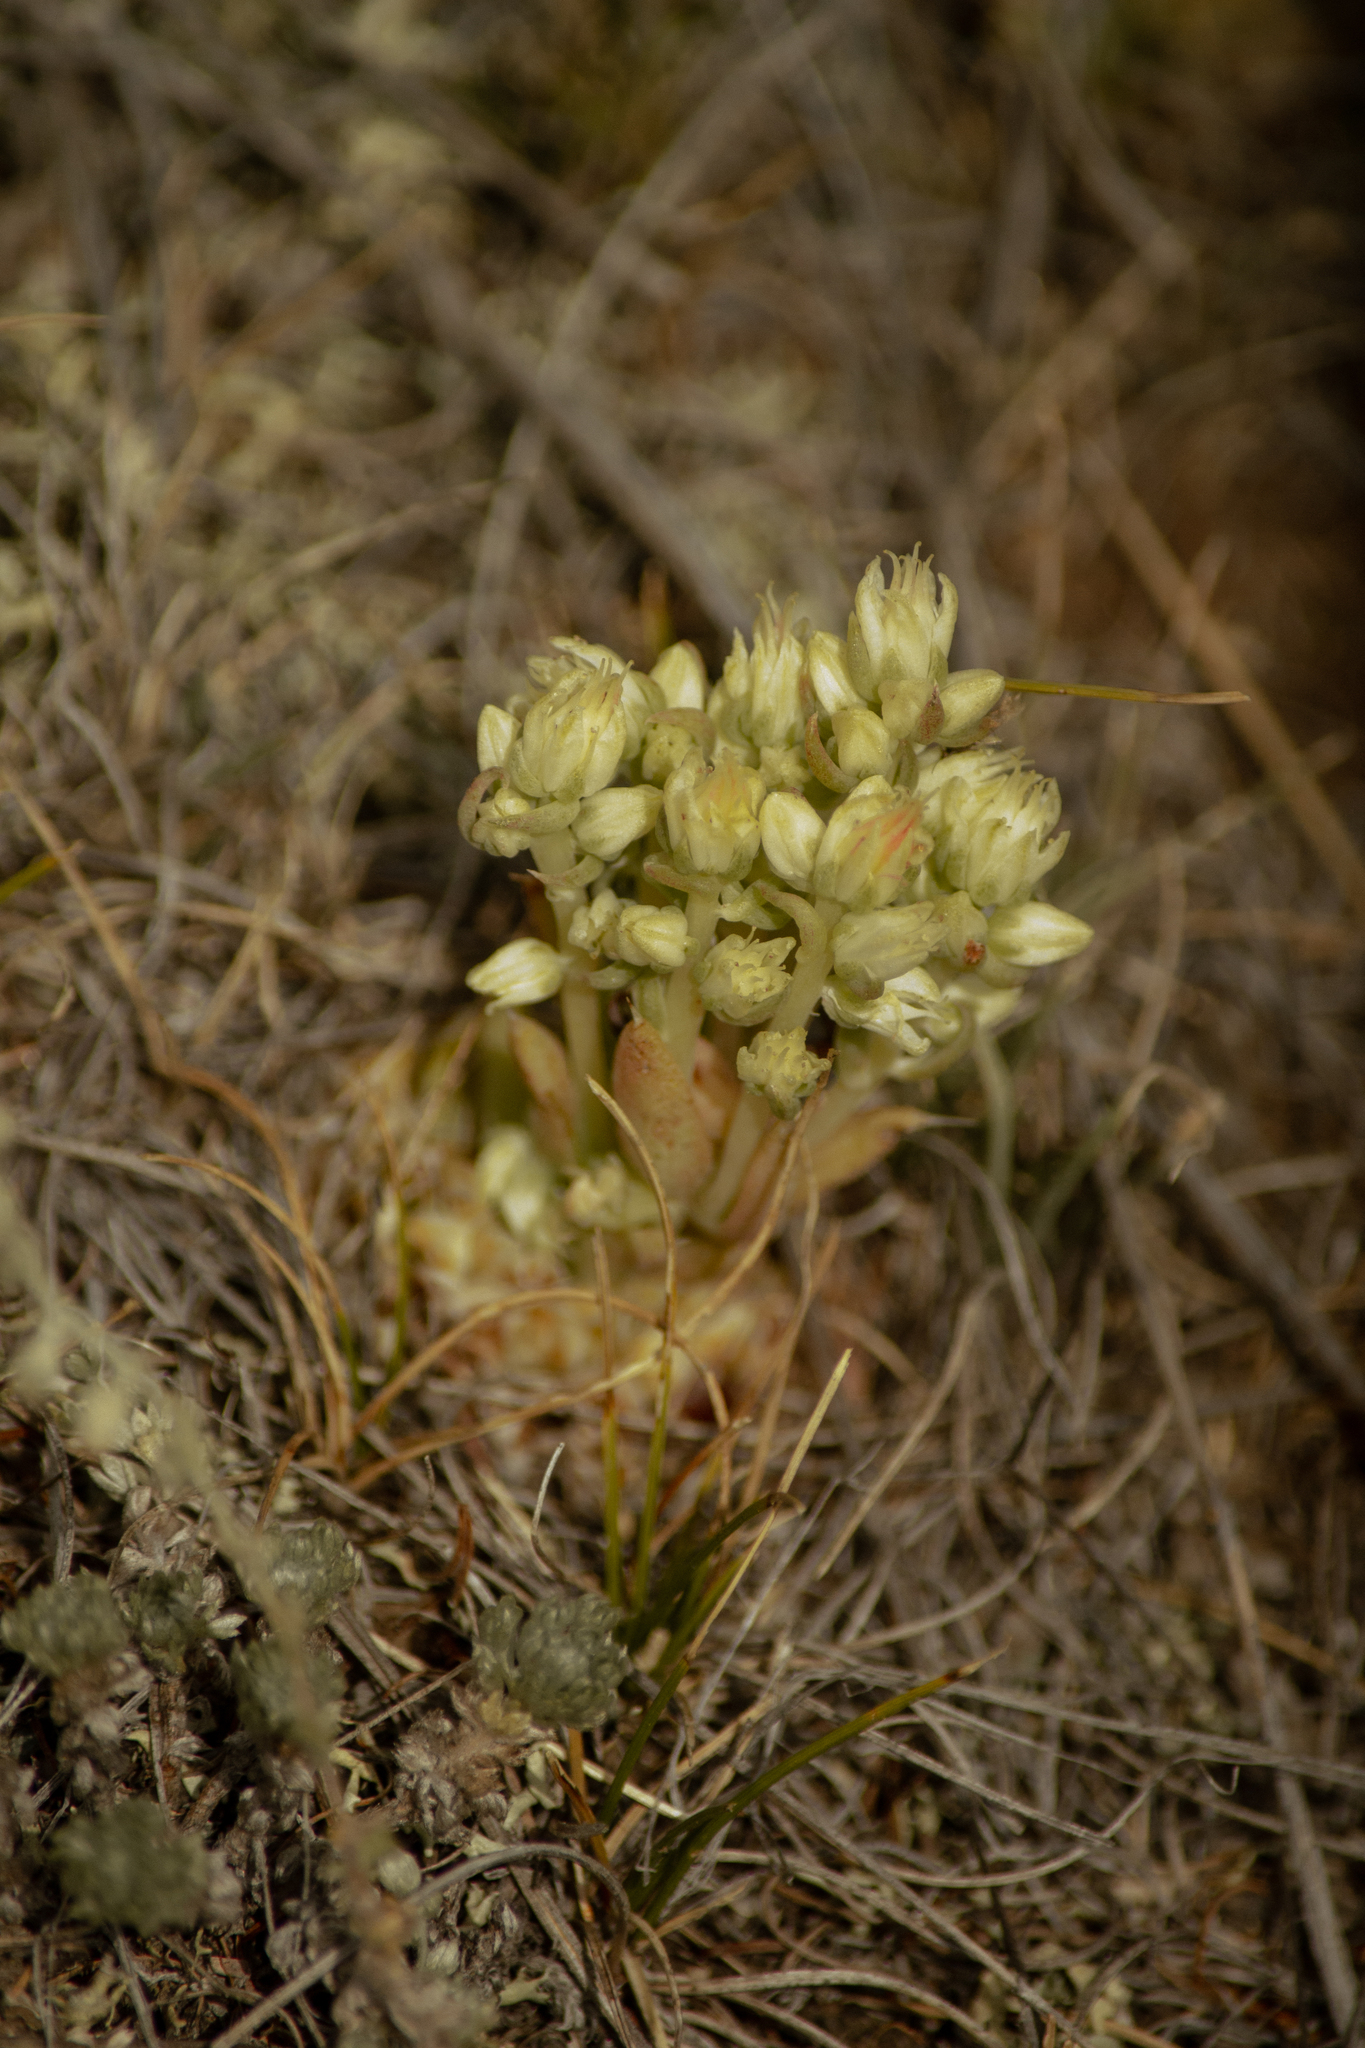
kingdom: Plantae
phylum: Tracheophyta
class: Magnoliopsida
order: Saxifragales
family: Crassulaceae
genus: Orostachys
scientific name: Orostachys spinosa
